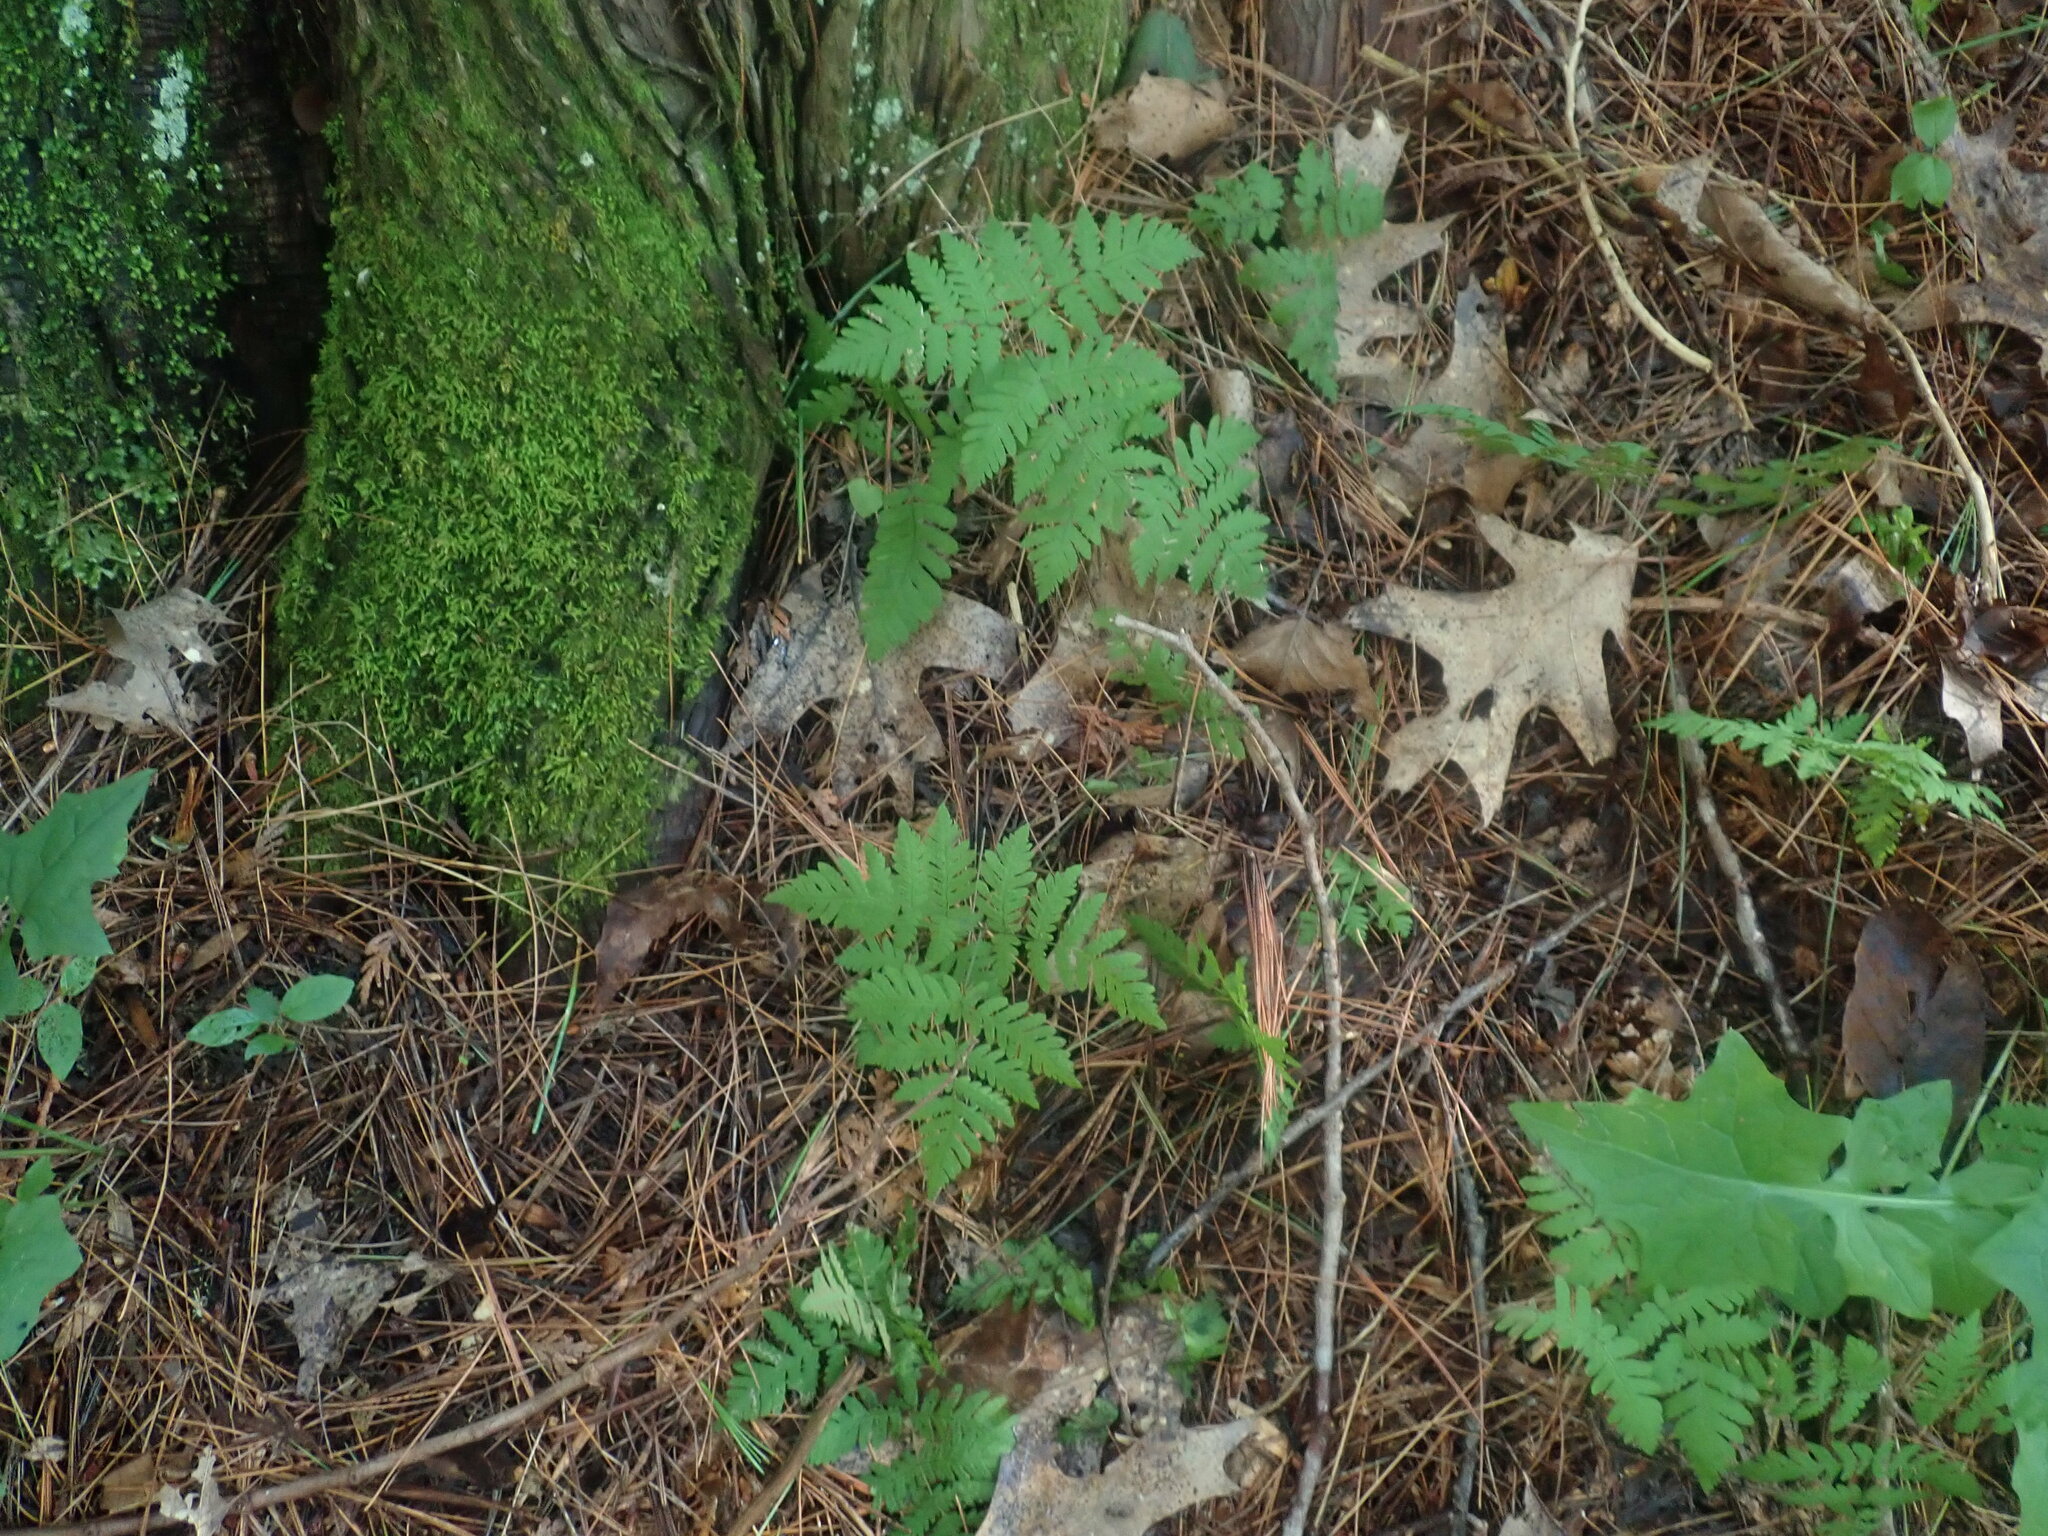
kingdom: Plantae
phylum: Tracheophyta
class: Polypodiopsida
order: Polypodiales
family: Cystopteridaceae
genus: Gymnocarpium
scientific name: Gymnocarpium dryopteris
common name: Oak fern
